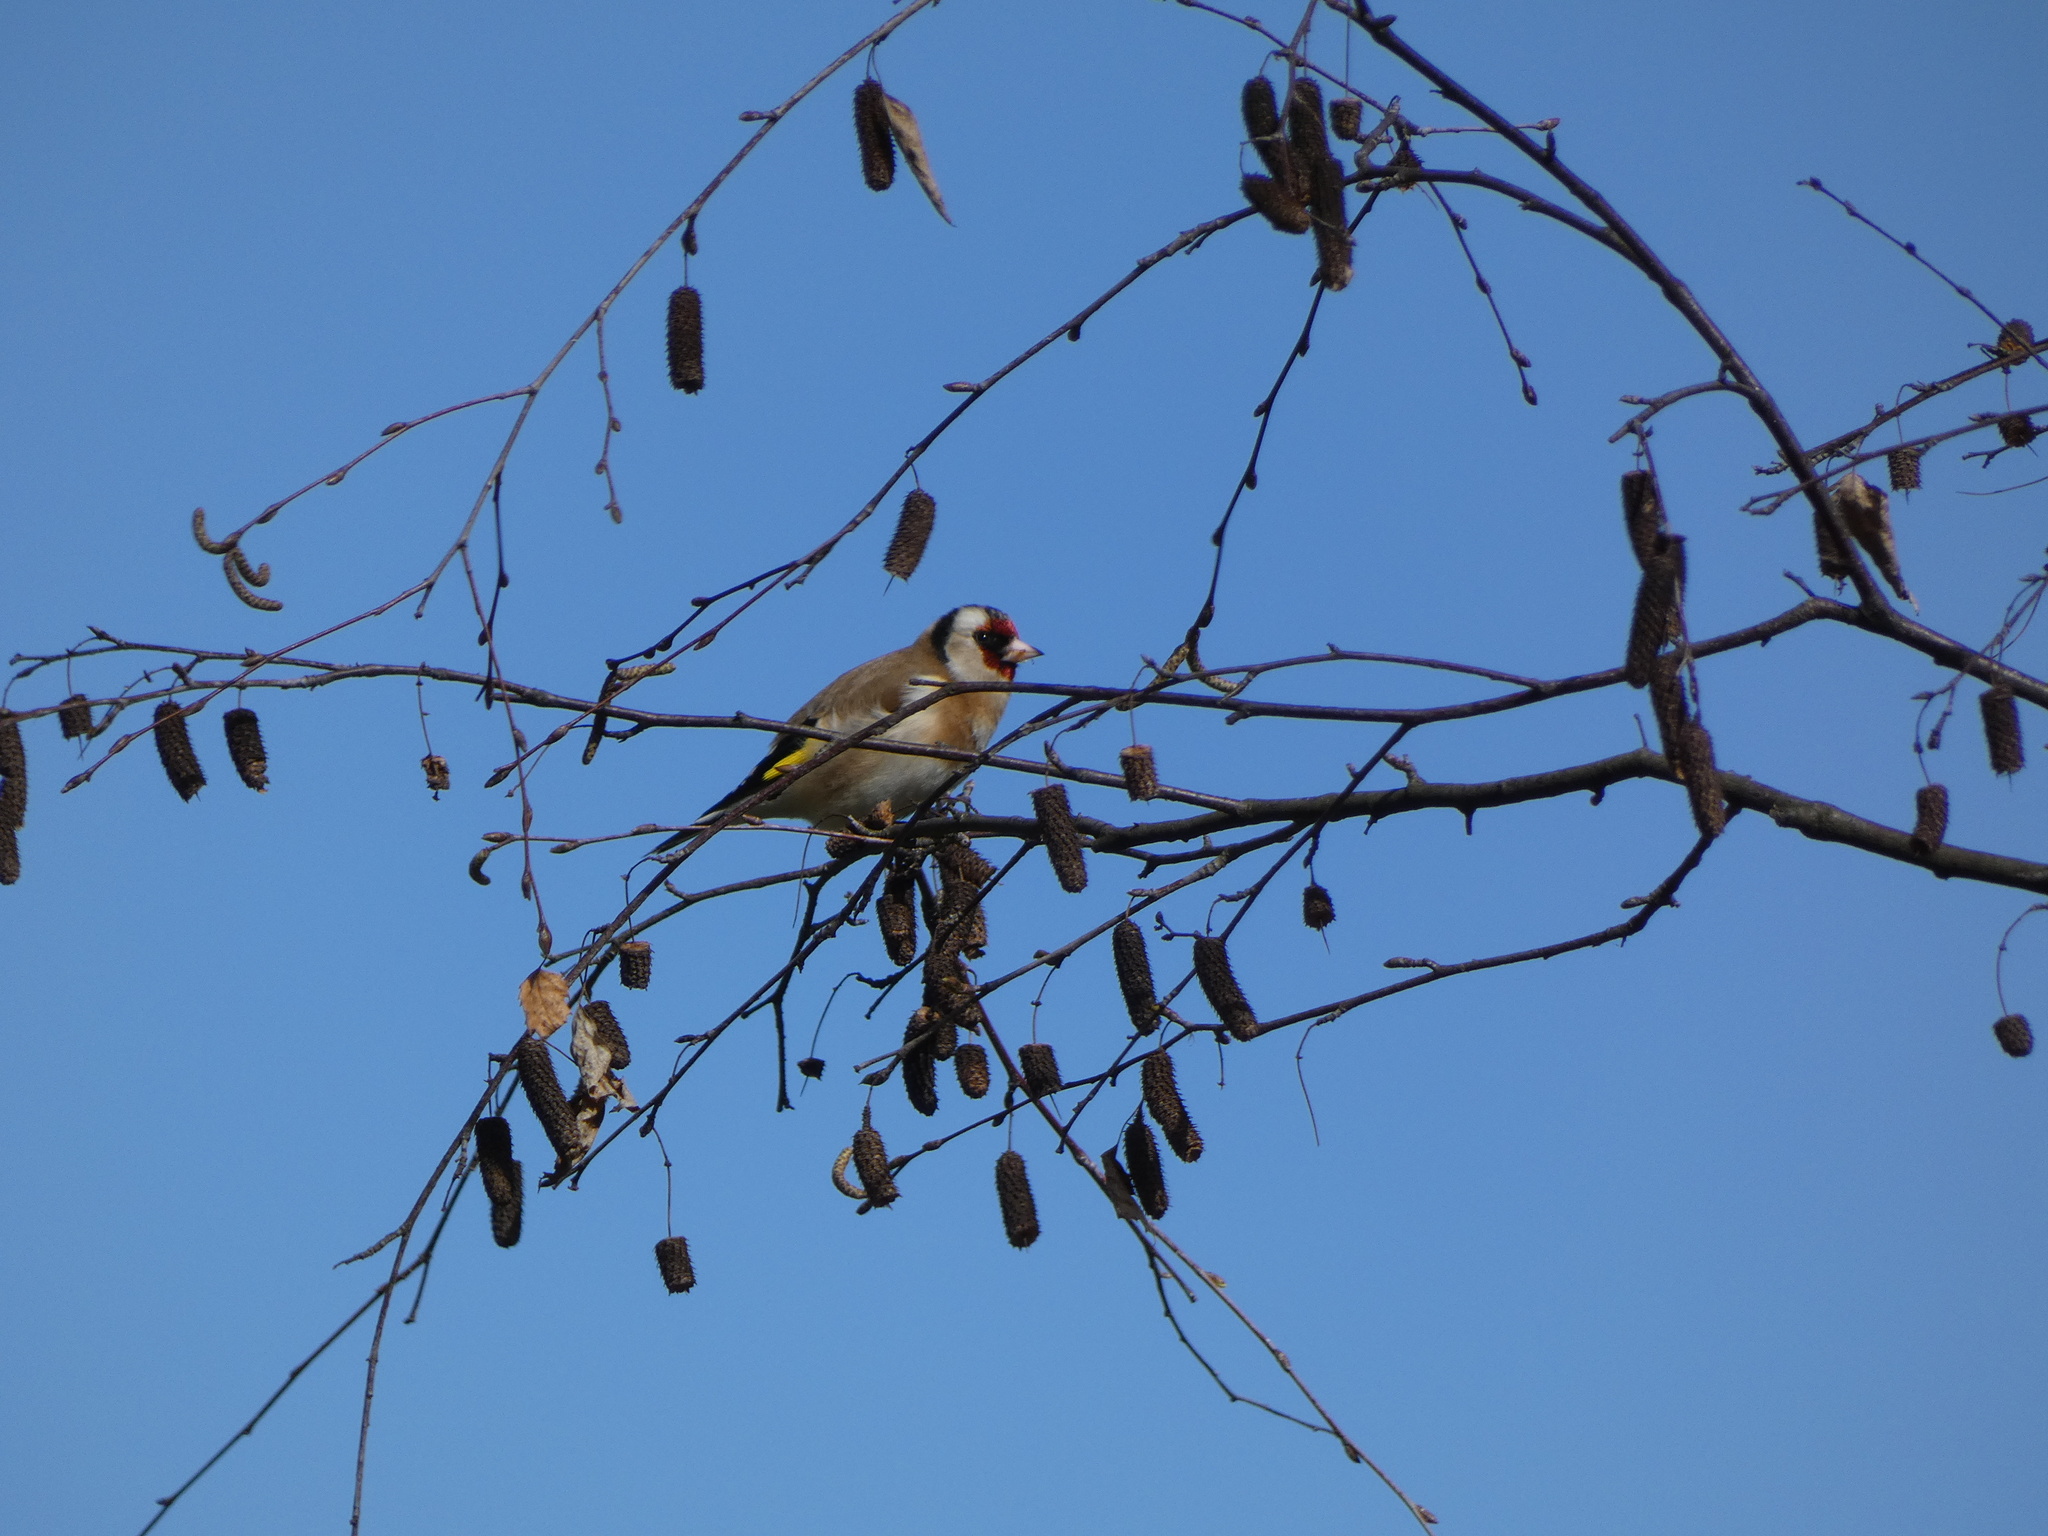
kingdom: Animalia
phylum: Chordata
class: Aves
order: Passeriformes
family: Fringillidae
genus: Carduelis
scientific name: Carduelis carduelis
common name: European goldfinch
